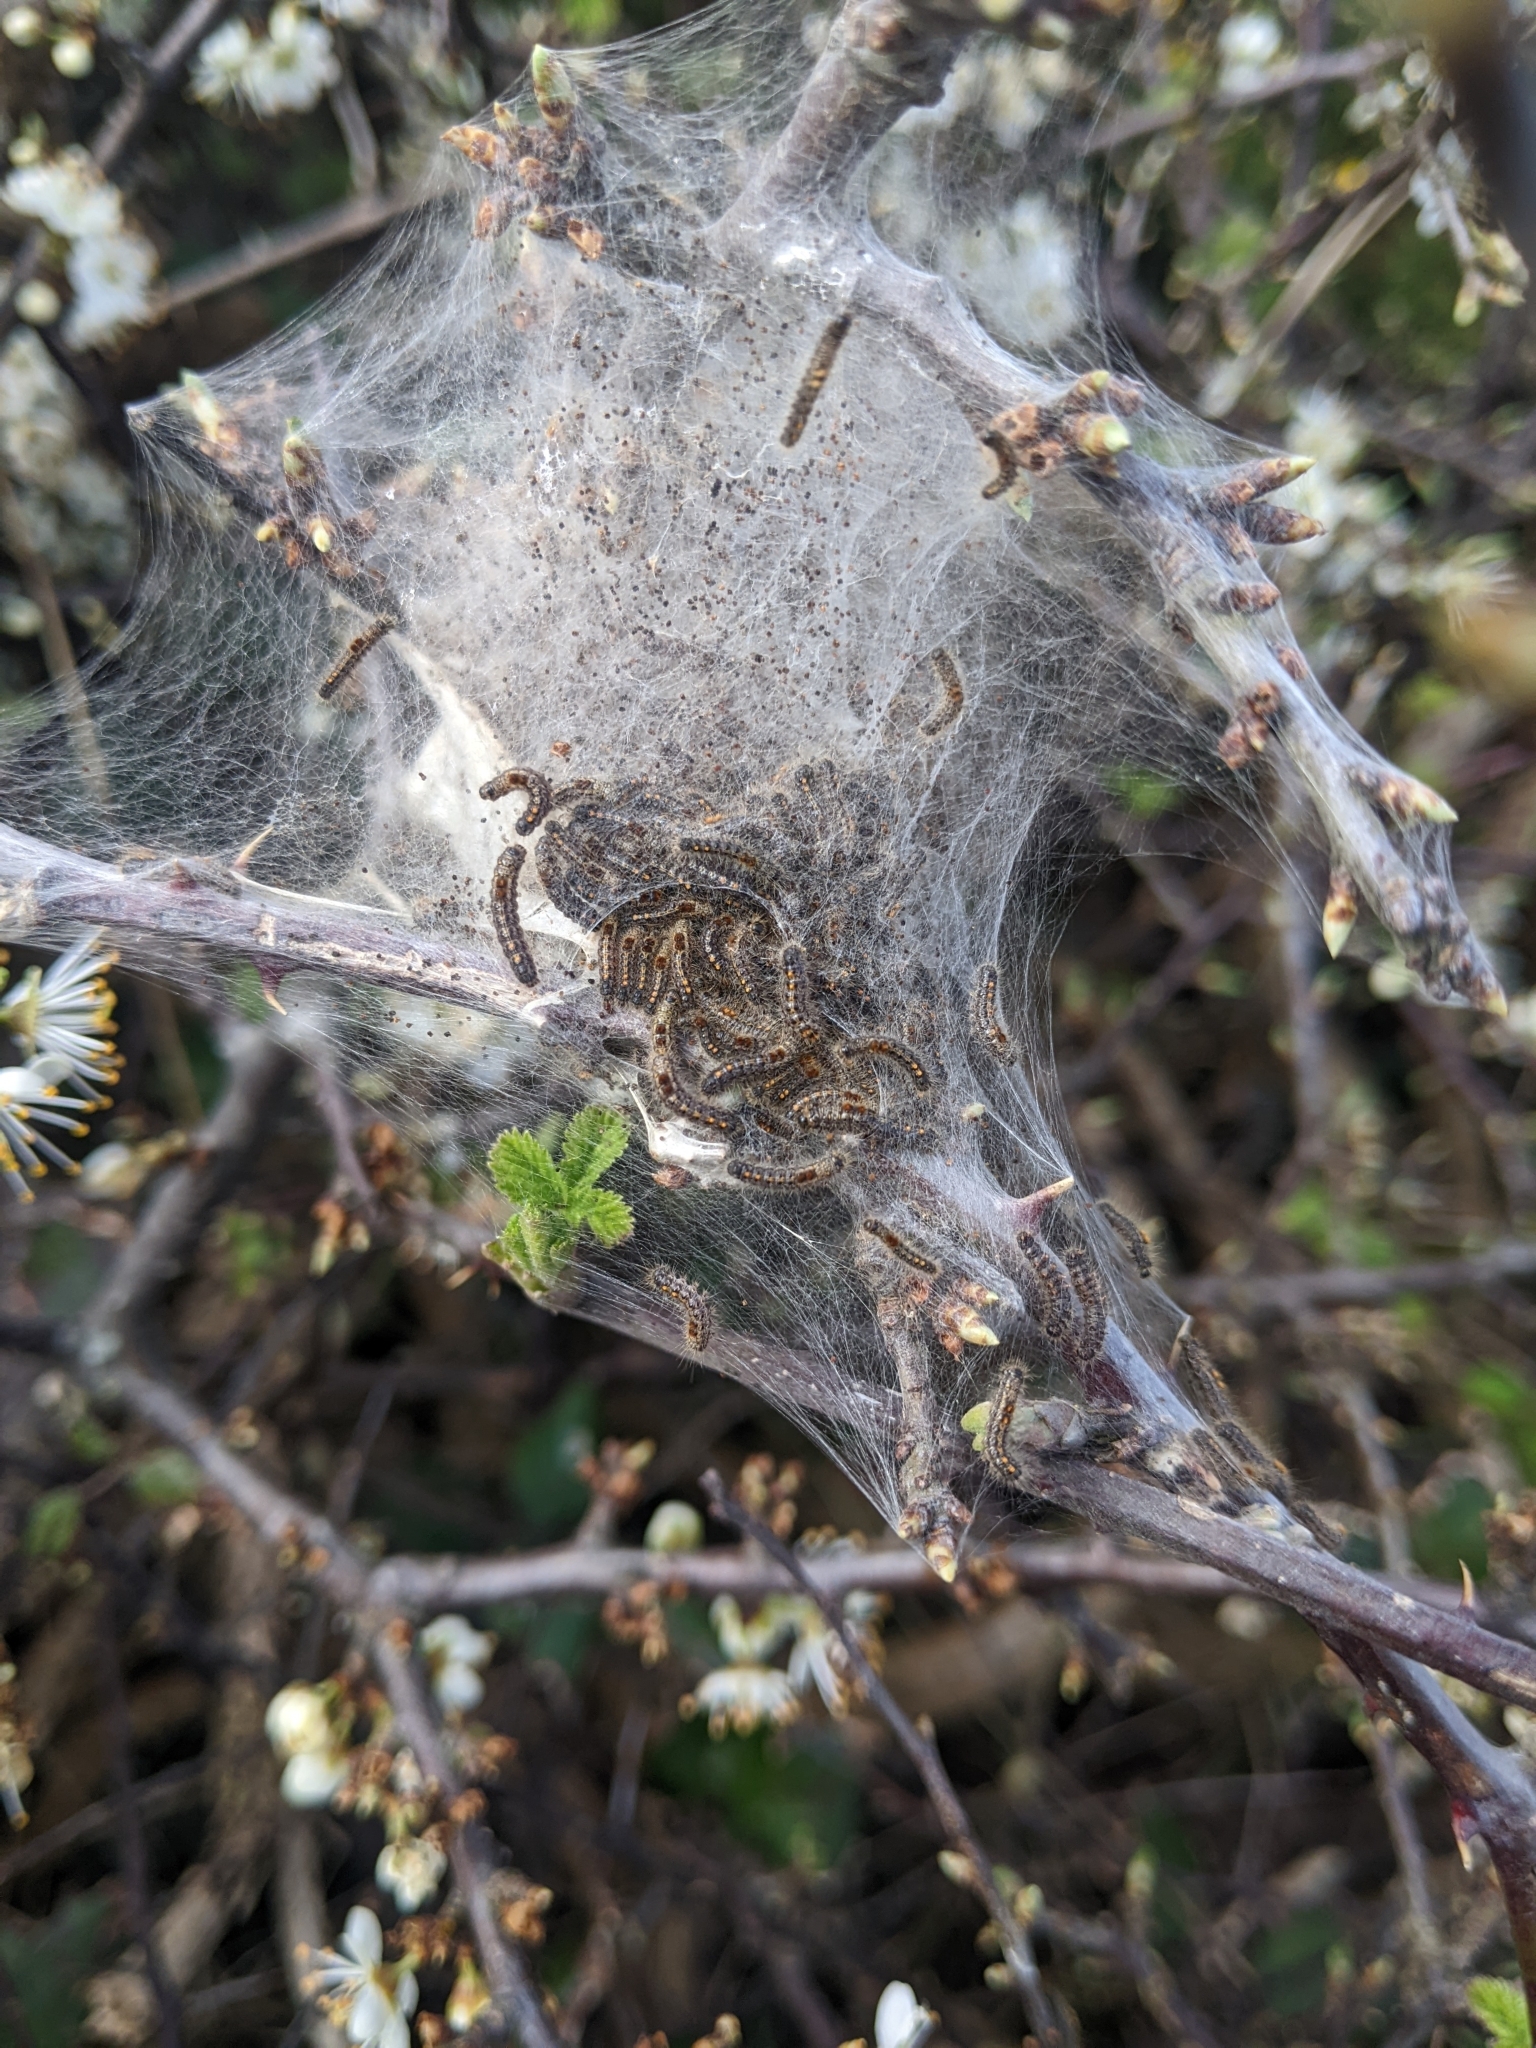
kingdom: Animalia
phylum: Arthropoda
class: Insecta
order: Lepidoptera
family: Erebidae
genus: Euproctis
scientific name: Euproctis chrysorrhoea
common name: Brown-tail
